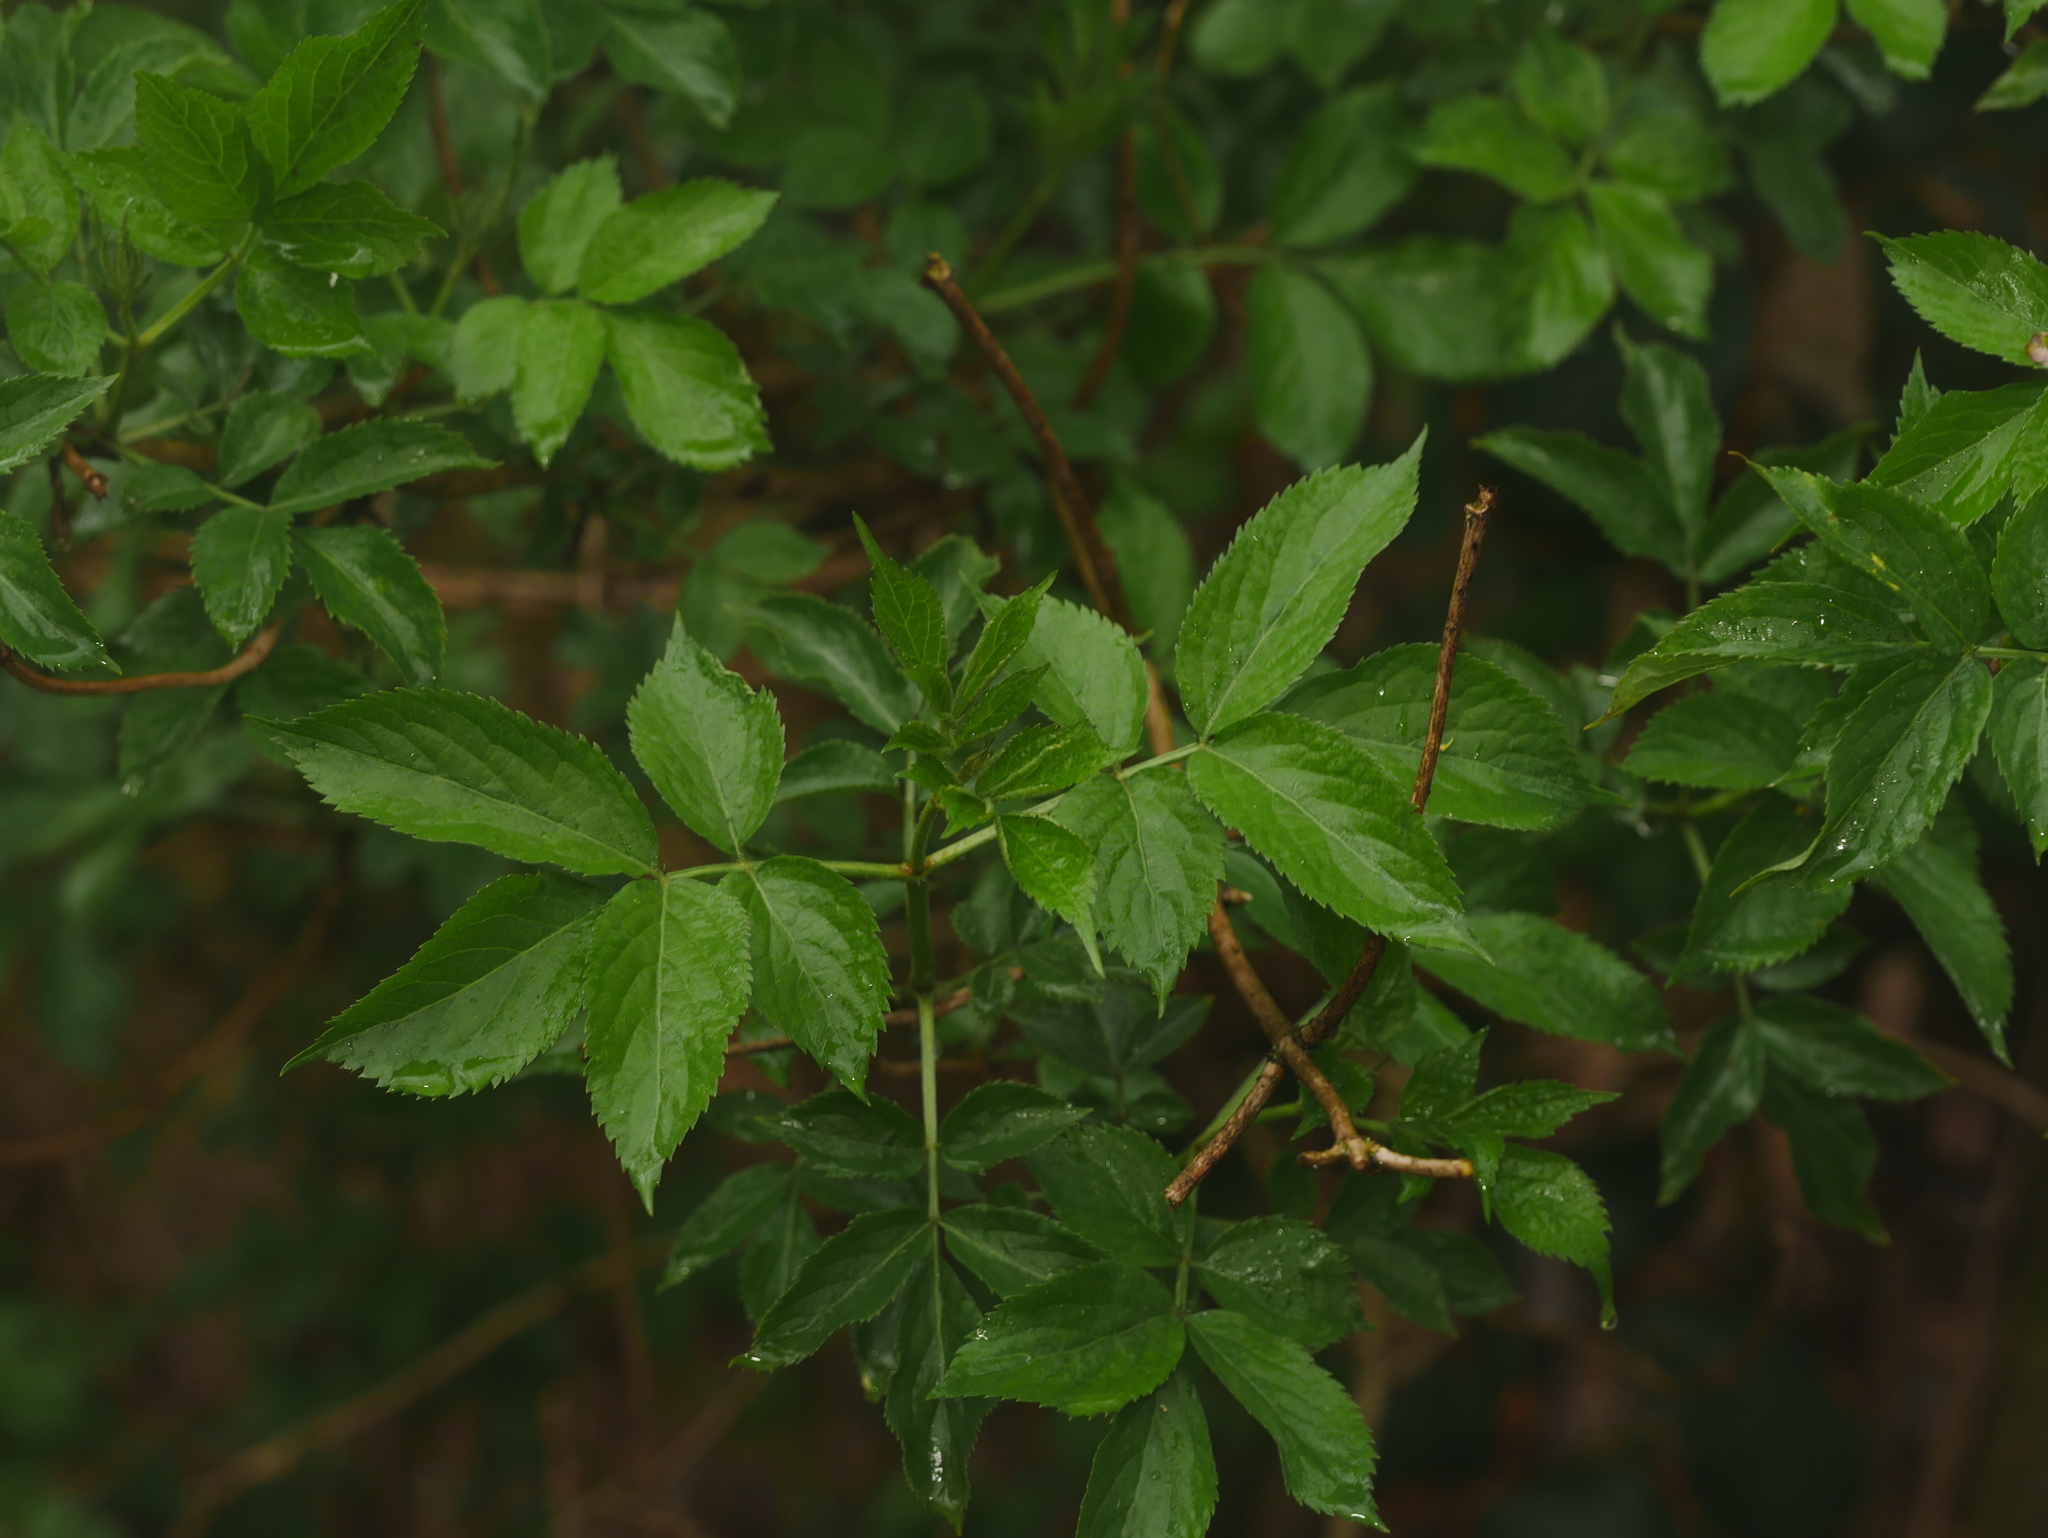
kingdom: Plantae
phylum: Tracheophyta
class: Magnoliopsida
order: Dipsacales
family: Viburnaceae
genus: Sambucus
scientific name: Sambucus nigra
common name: Elder
